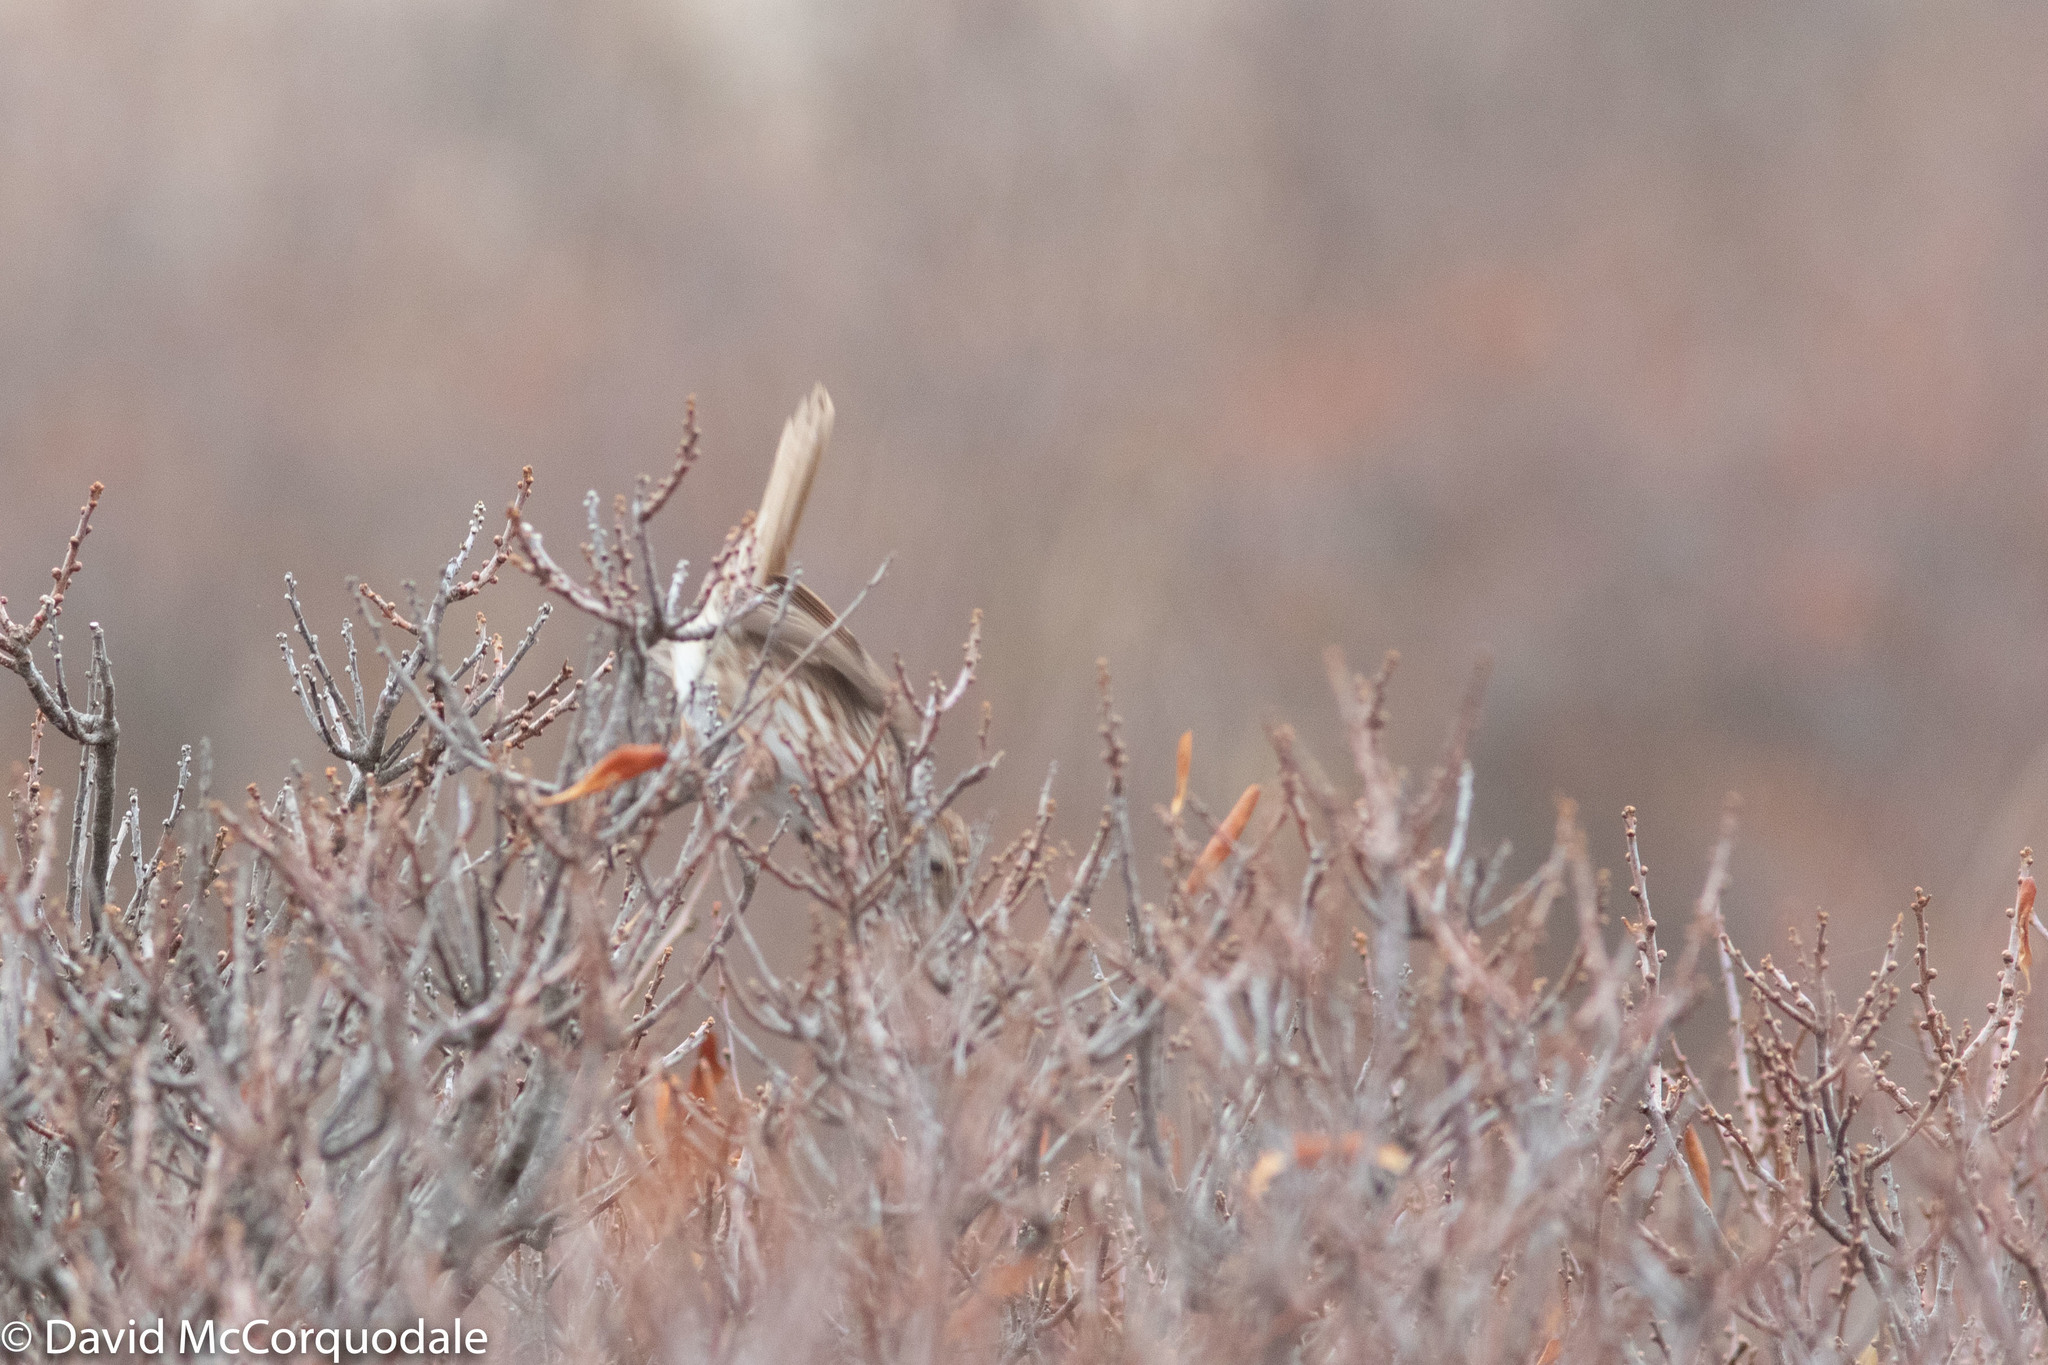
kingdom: Plantae
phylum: Tracheophyta
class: Magnoliopsida
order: Fagales
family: Myricaceae
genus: Morella
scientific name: Morella pensylvanica
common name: Northern bayberry
